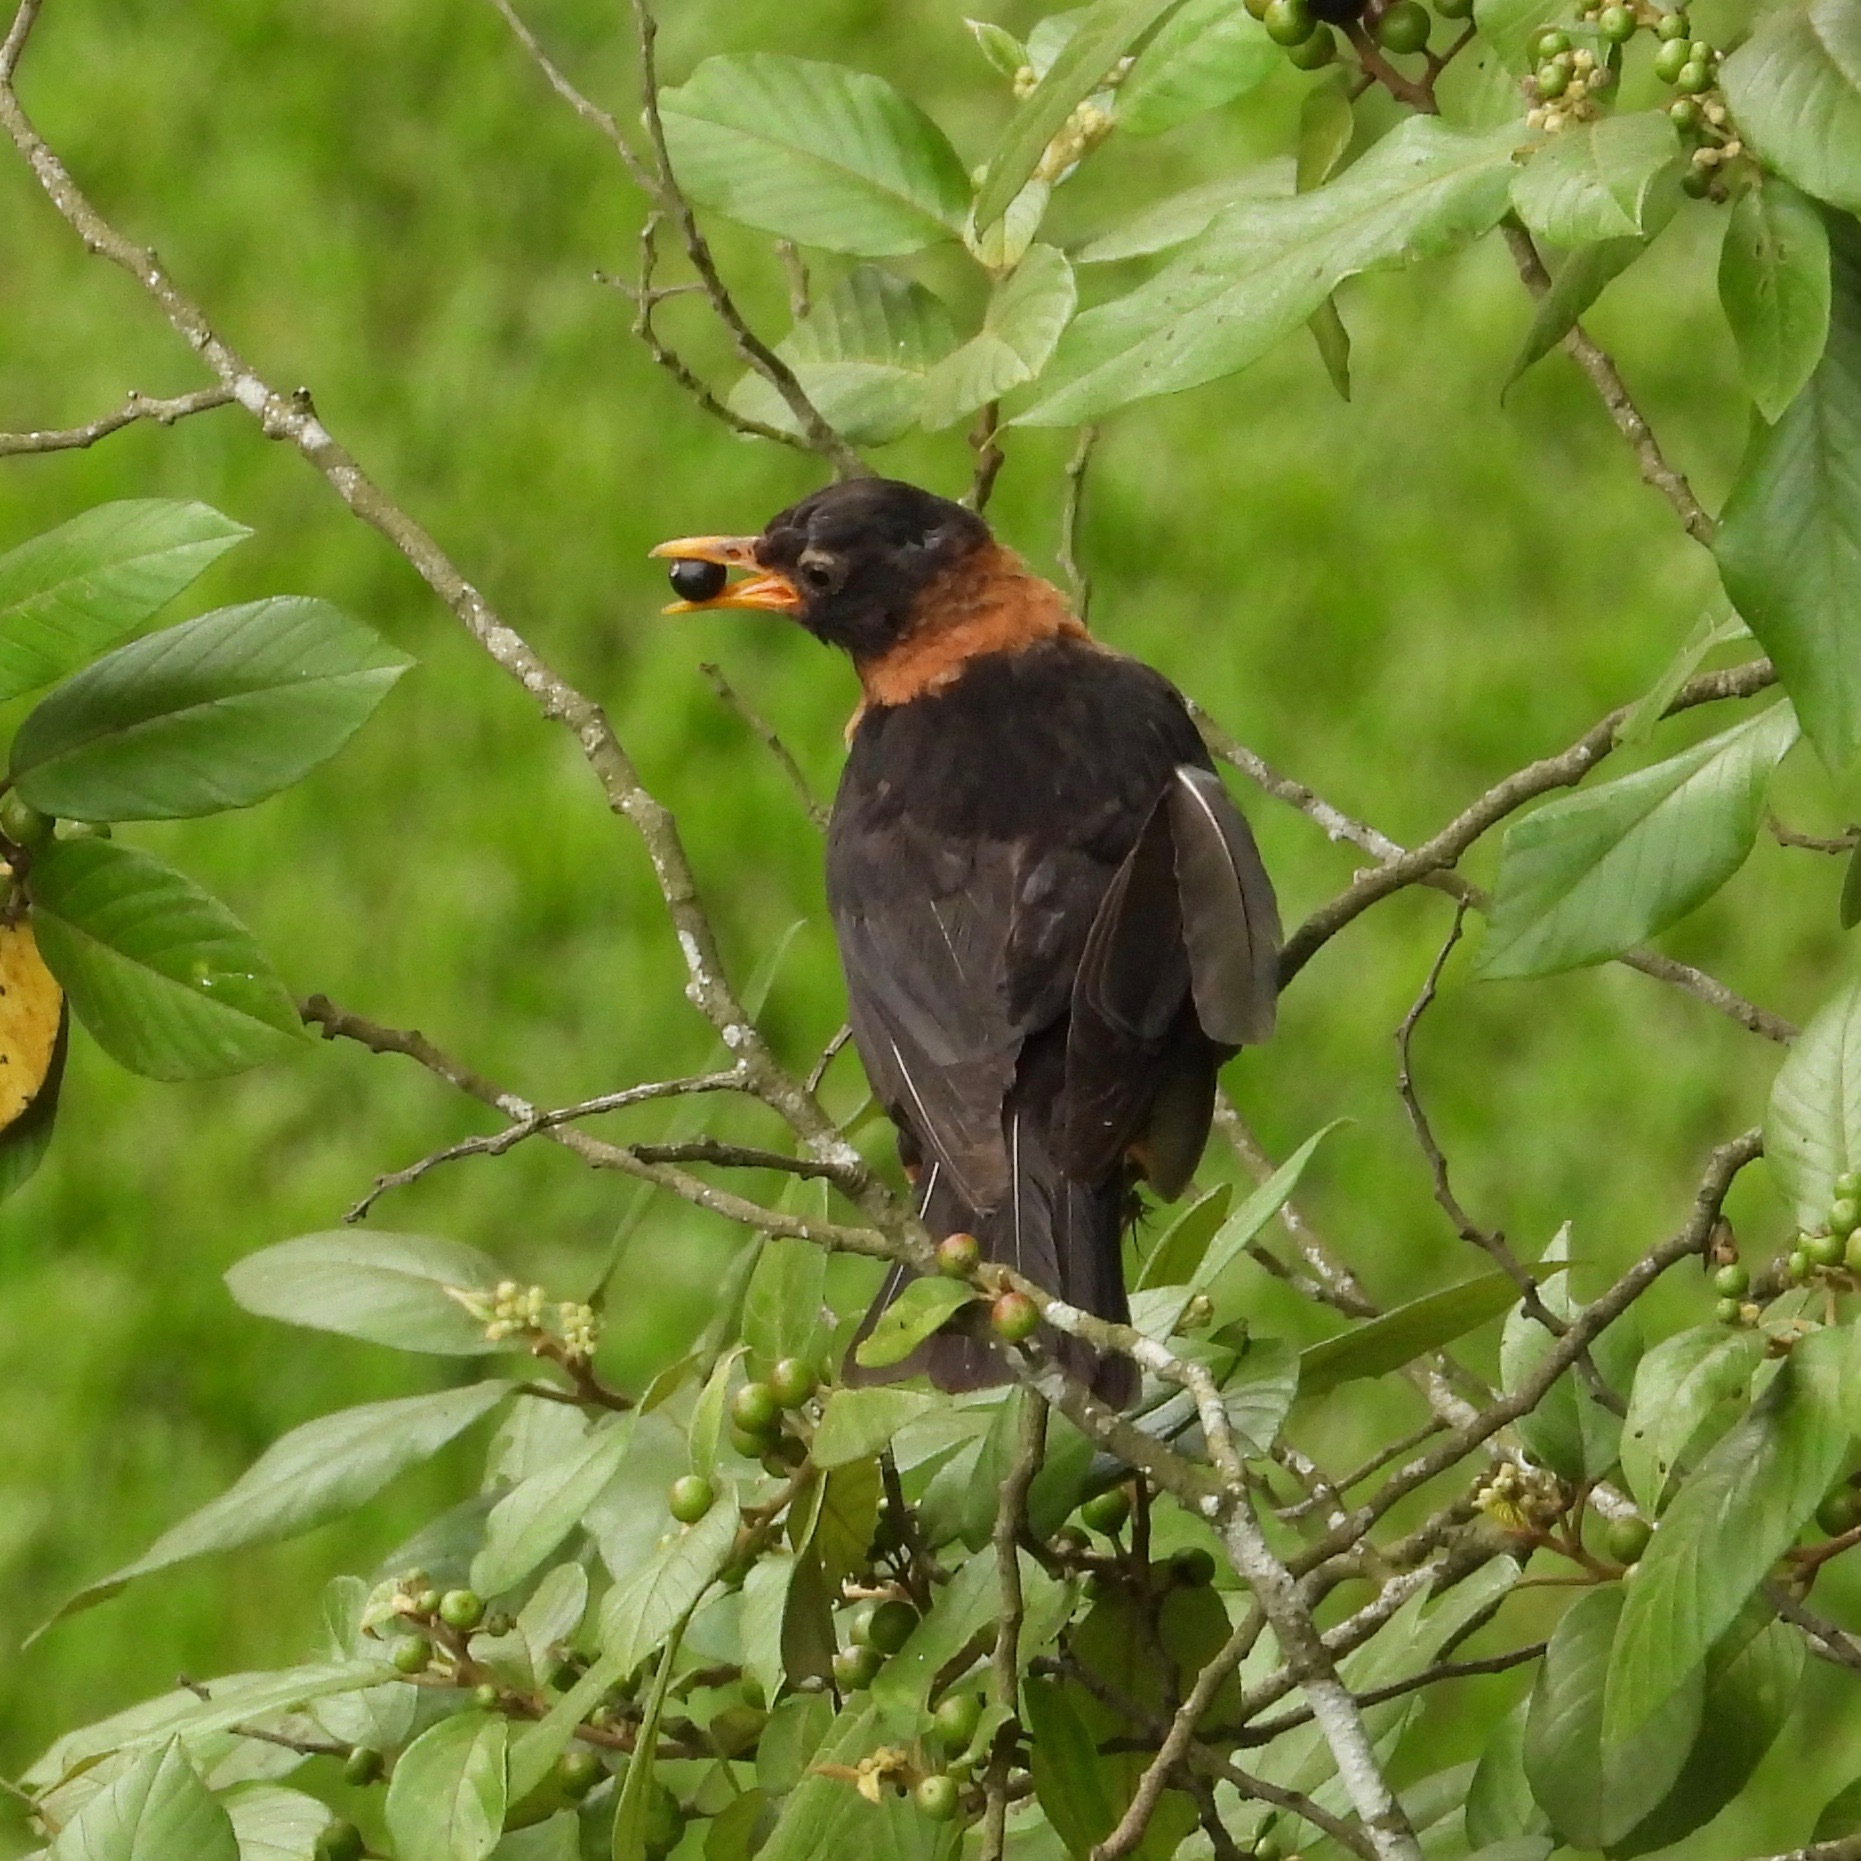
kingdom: Animalia
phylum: Chordata
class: Aves
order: Passeriformes
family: Turdidae
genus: Turdus
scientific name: Turdus rufitorques
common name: Rufous-collared thrush
